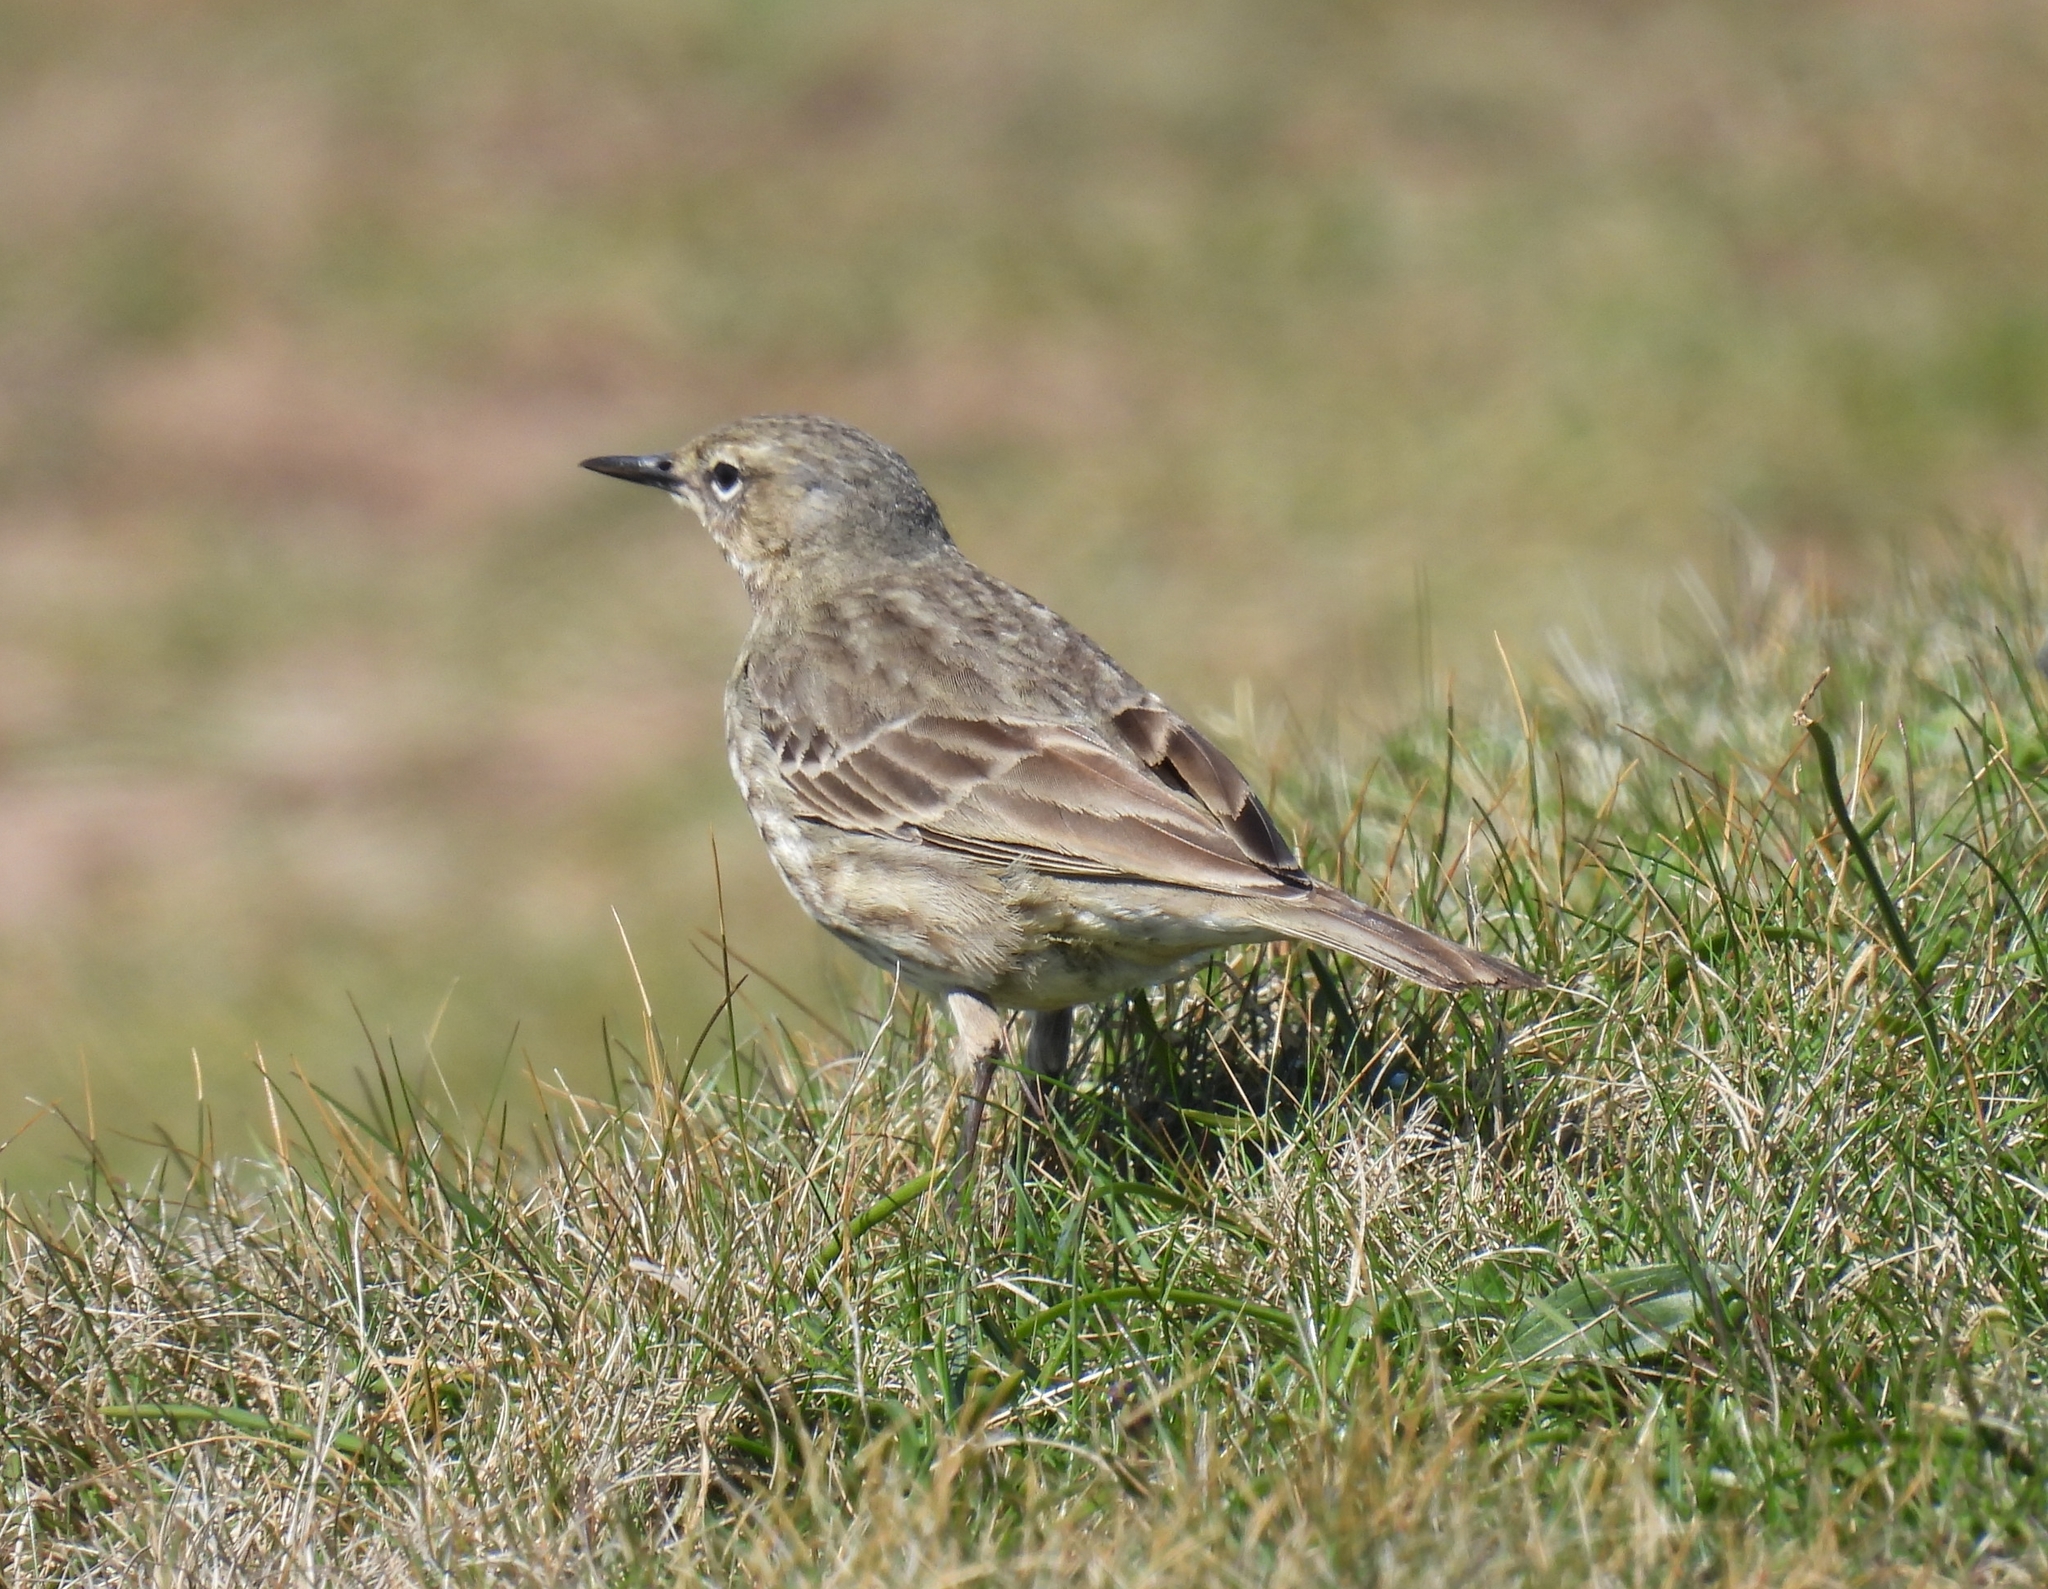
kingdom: Animalia
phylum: Chordata
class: Aves
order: Passeriformes
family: Motacillidae
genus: Anthus
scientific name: Anthus petrosus
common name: Eurasian rock pipit
